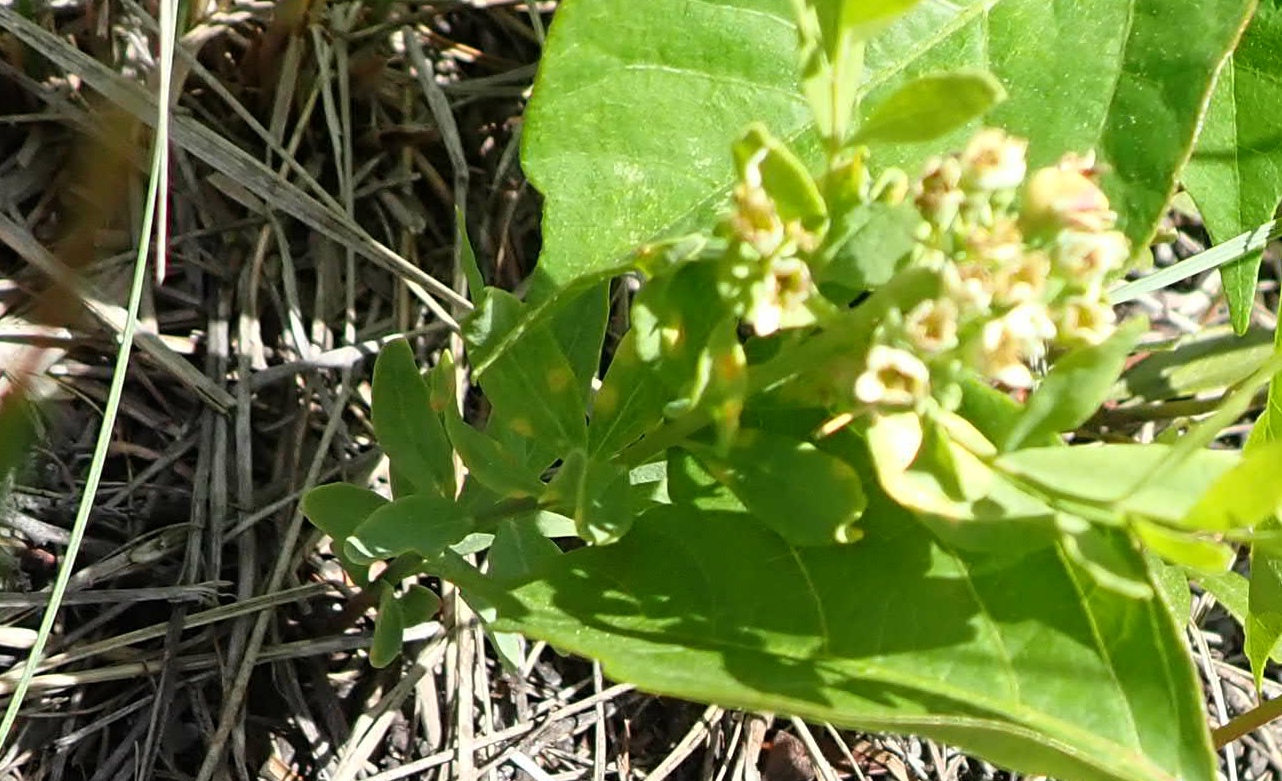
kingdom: Plantae
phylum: Tracheophyta
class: Magnoliopsida
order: Santalales
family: Comandraceae
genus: Comandra
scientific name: Comandra umbellata
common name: Bastard toadflax
